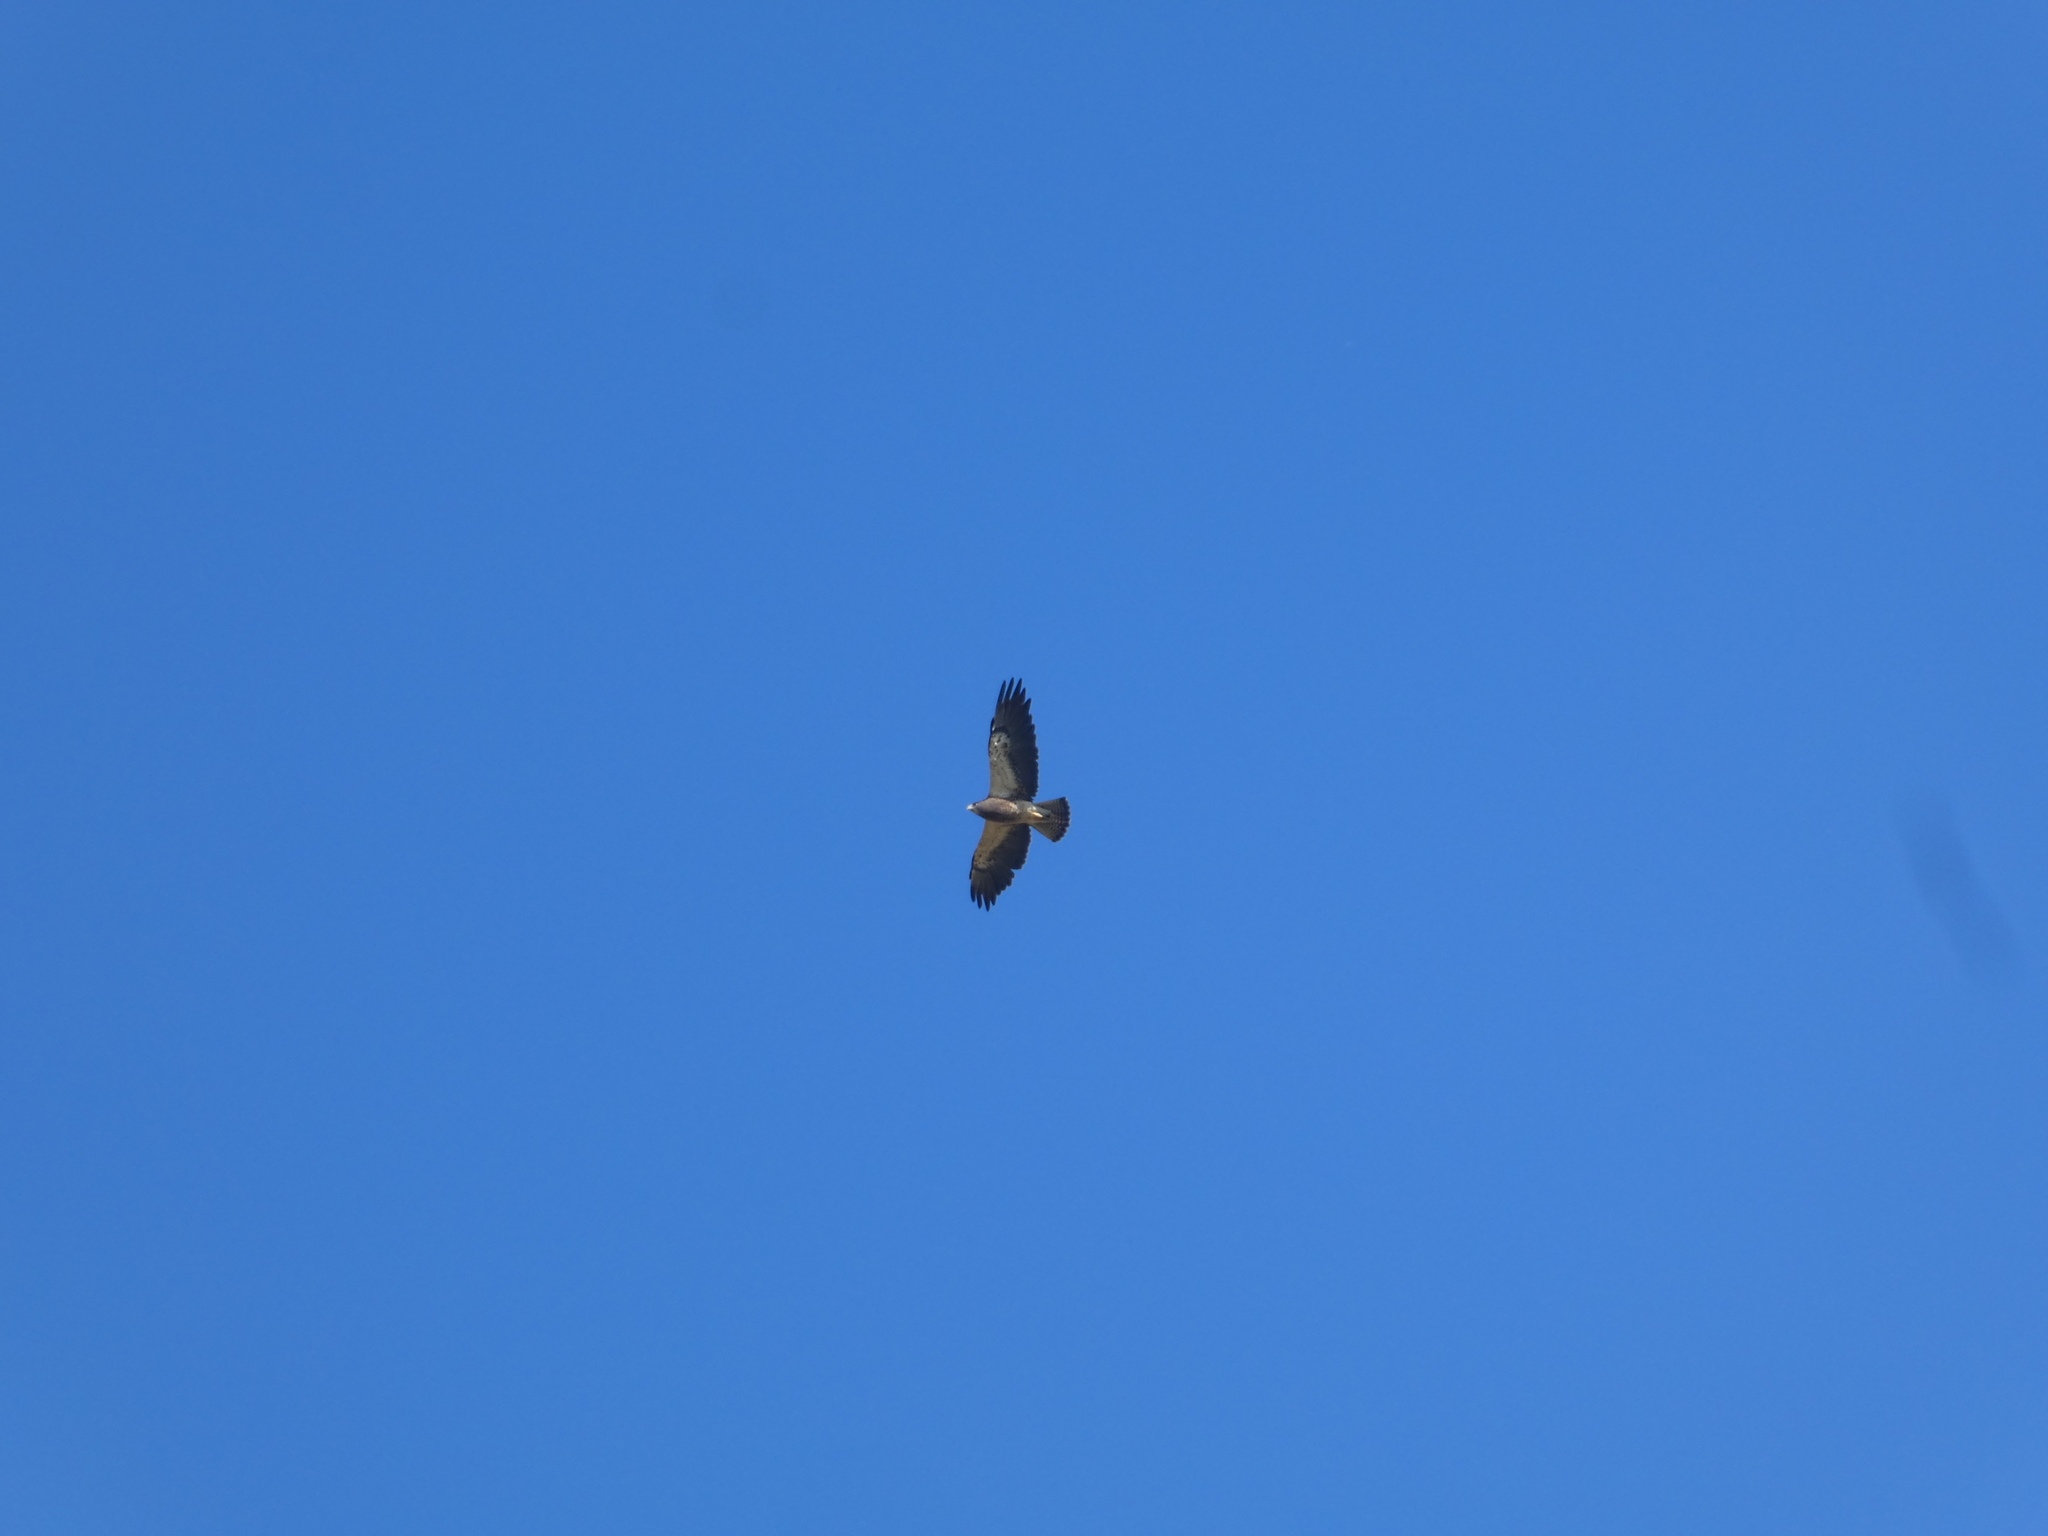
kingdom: Animalia
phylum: Chordata
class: Aves
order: Accipitriformes
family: Accipitridae
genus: Buteo
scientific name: Buteo swainsoni
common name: Swainson's hawk
